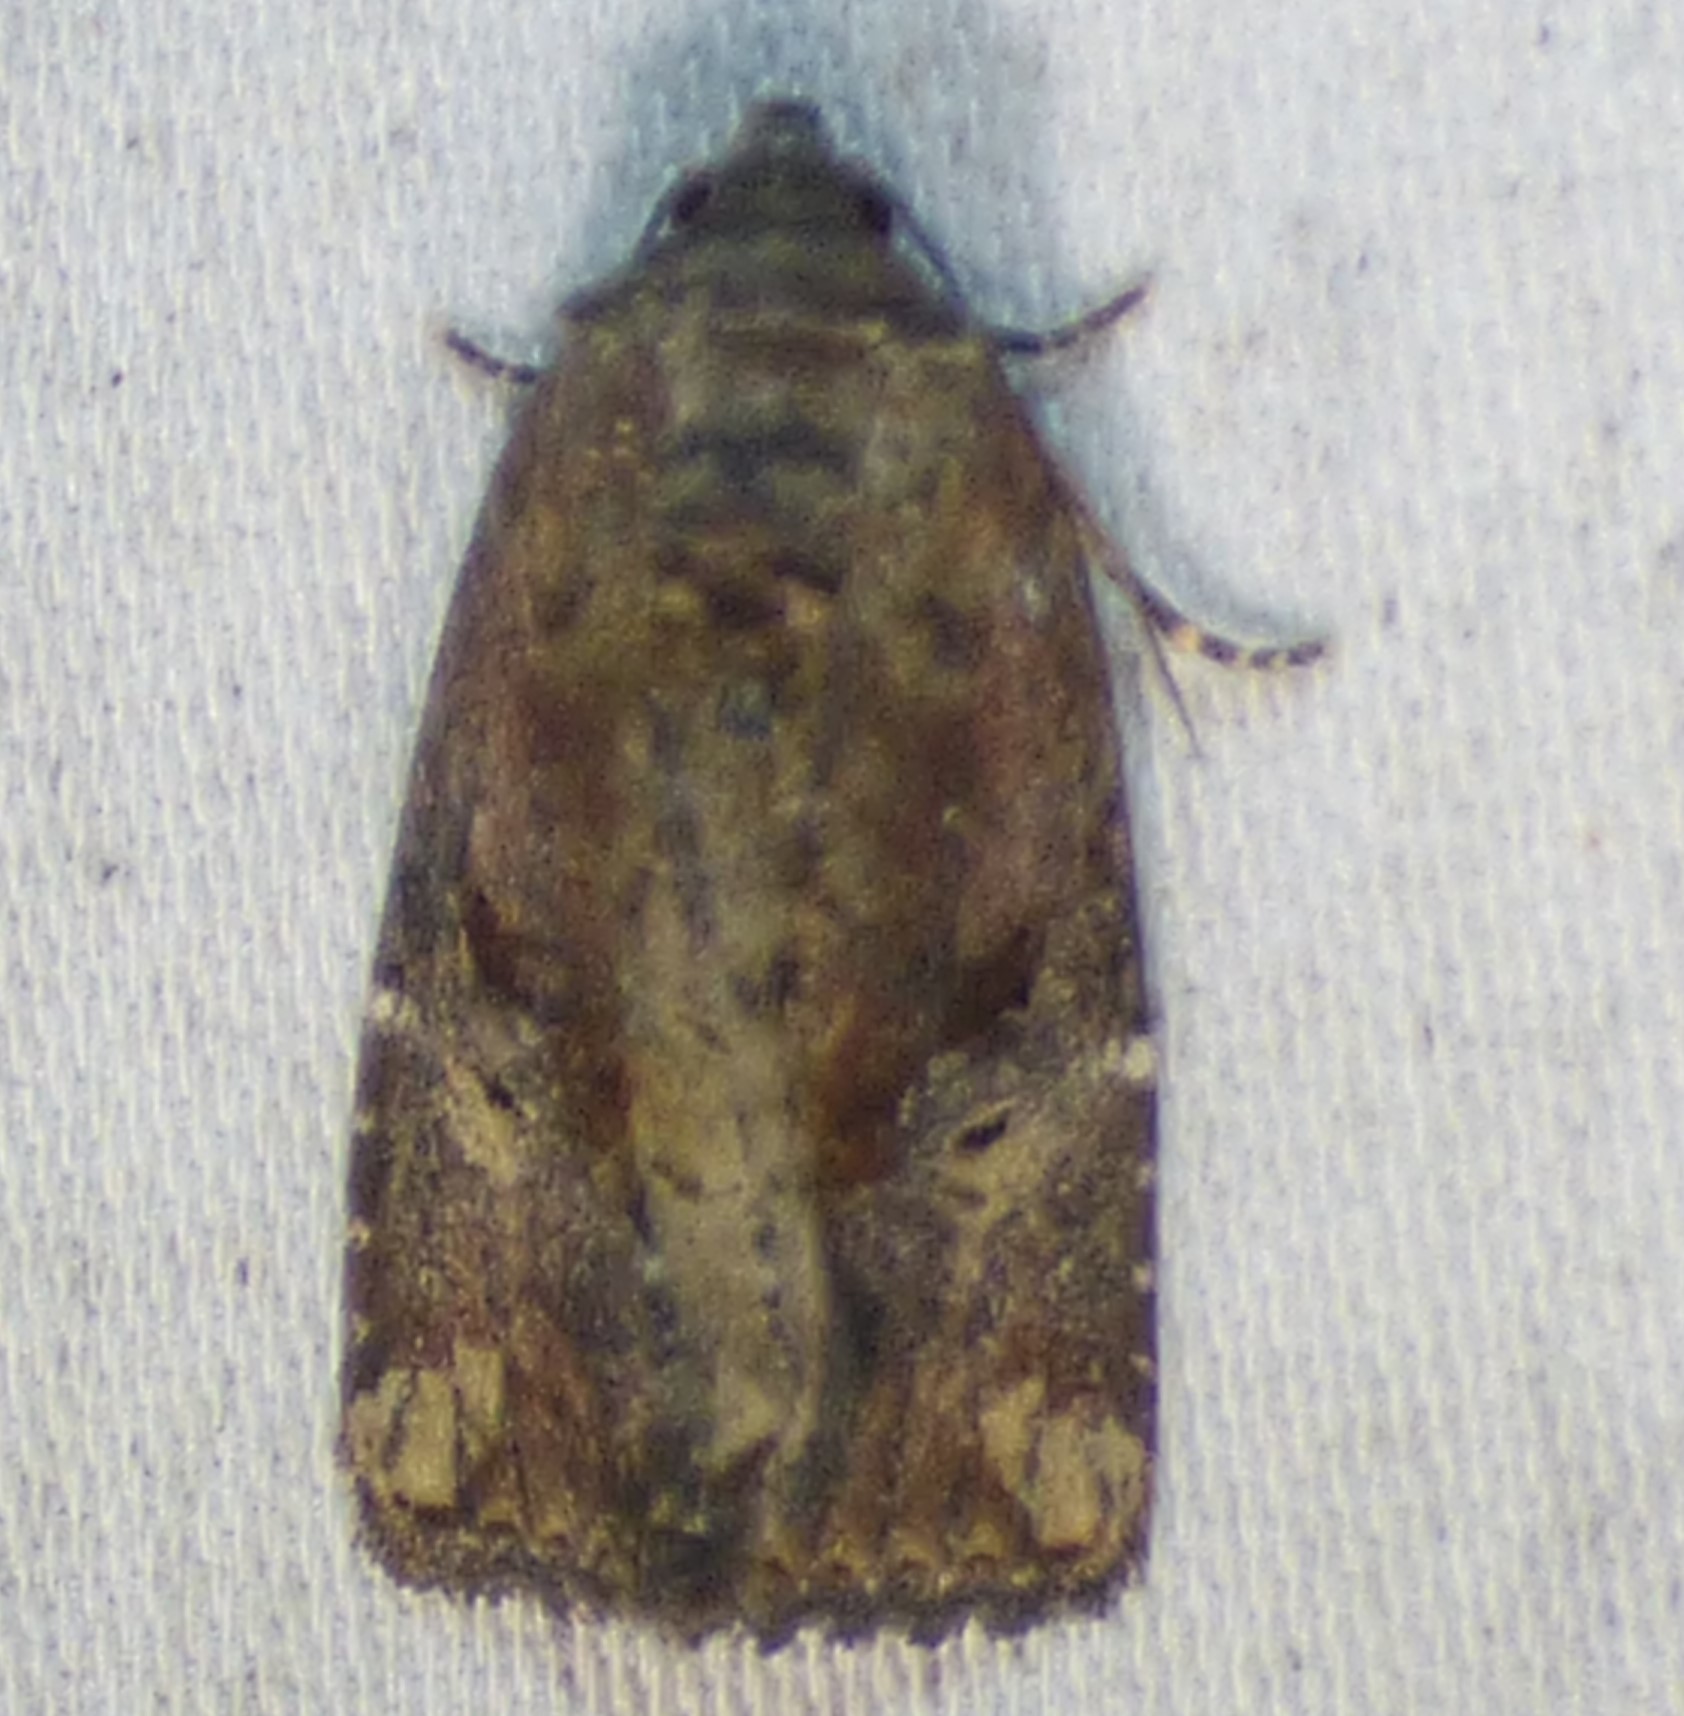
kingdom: Animalia
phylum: Arthropoda
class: Insecta
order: Lepidoptera
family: Noctuidae
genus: Elaphria
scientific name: Elaphria versicolor
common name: Fir harlequin
